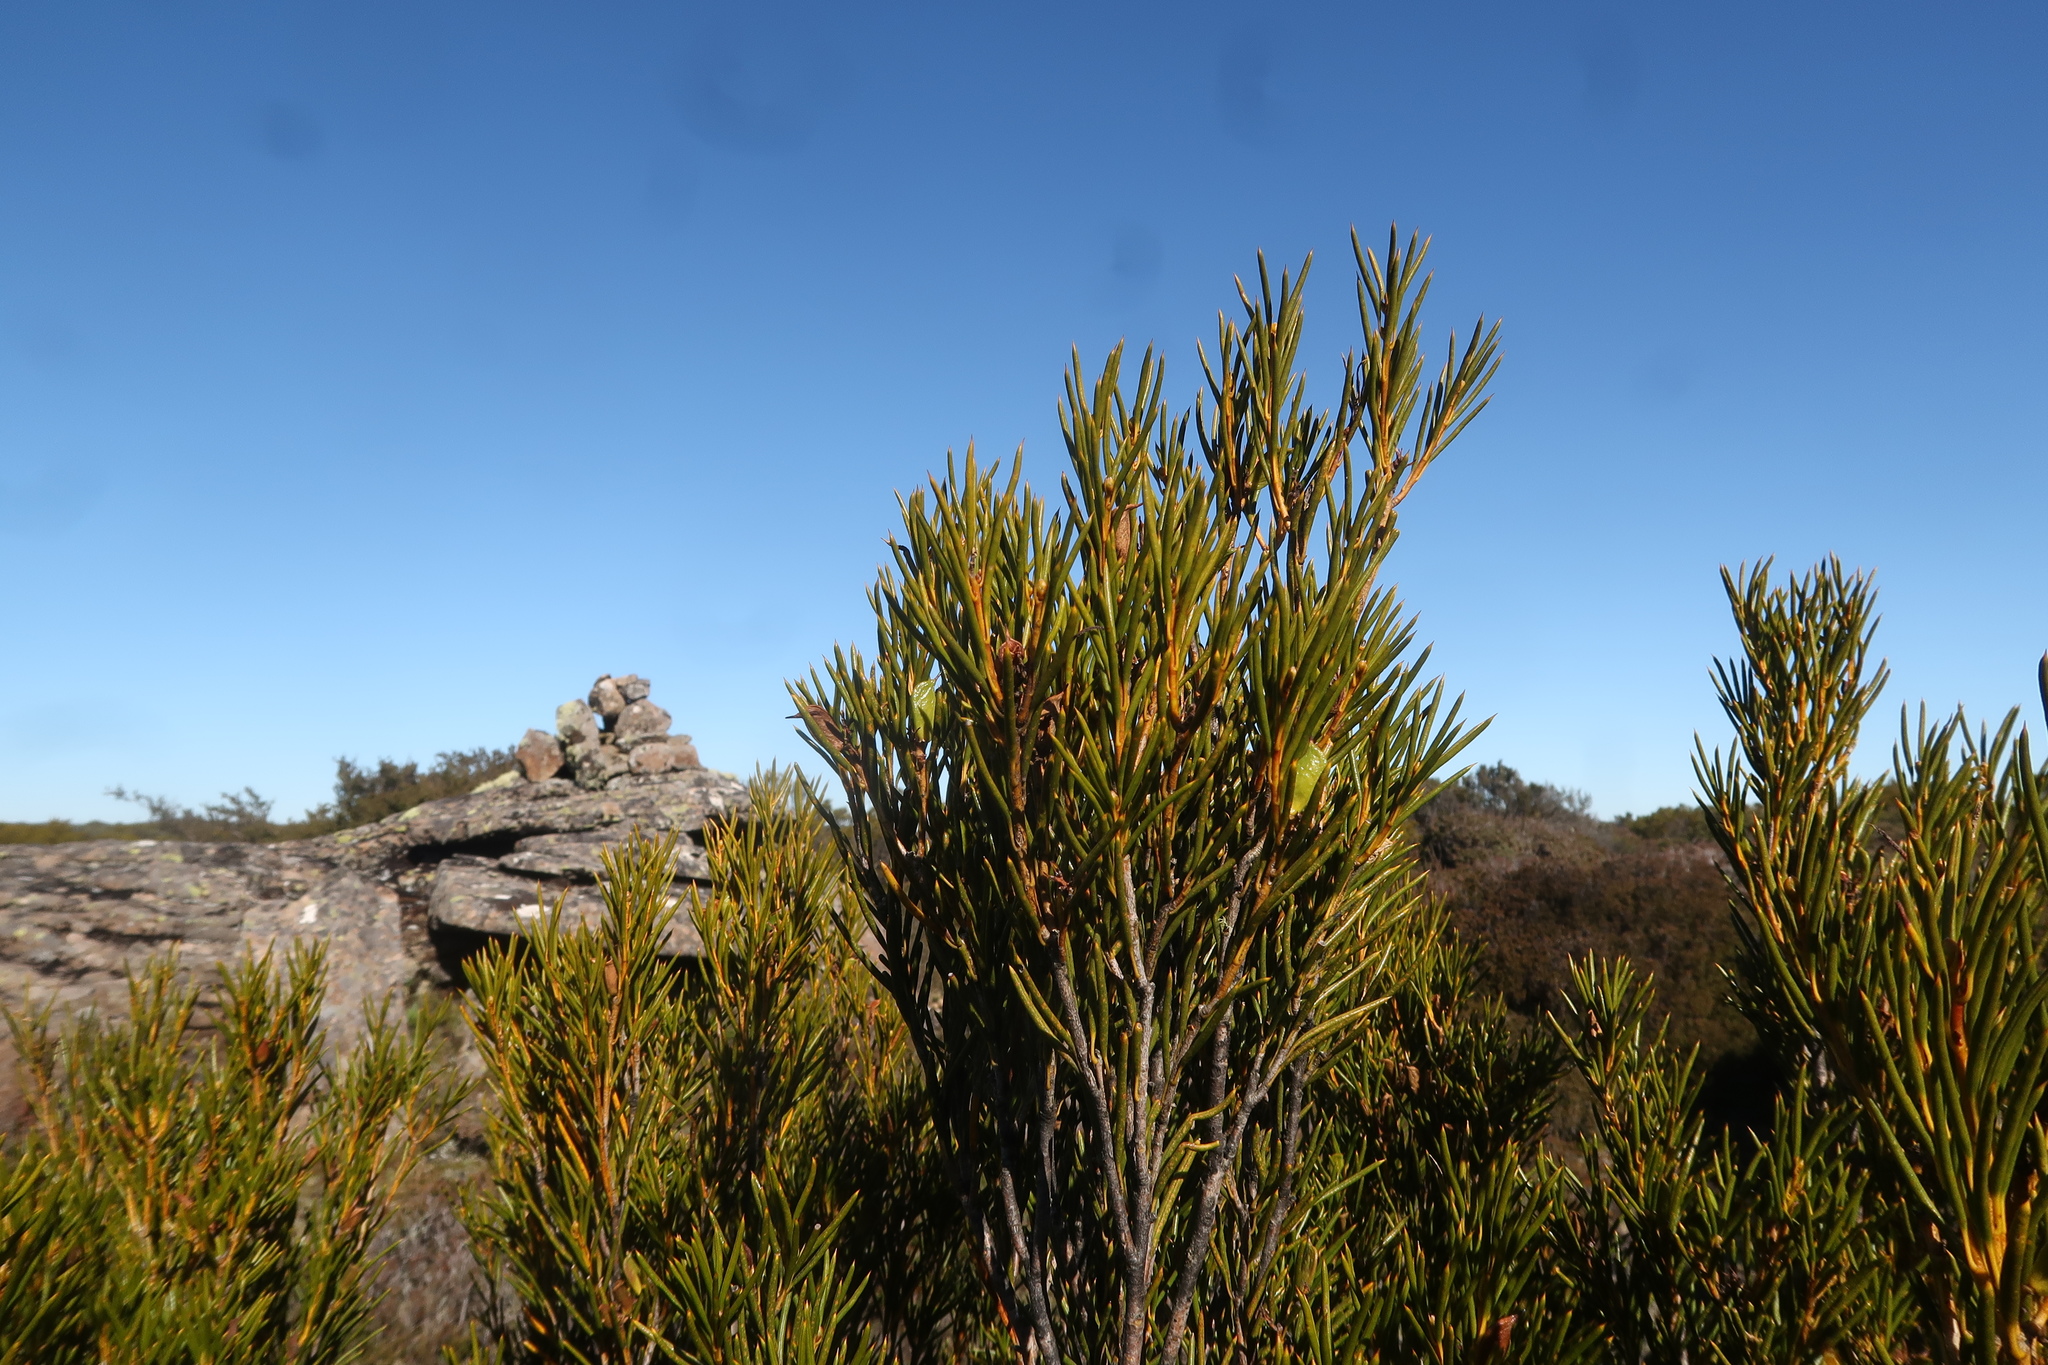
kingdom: Plantae
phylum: Tracheophyta
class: Magnoliopsida
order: Proteales
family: Proteaceae
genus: Orites
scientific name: Orites acicularis
